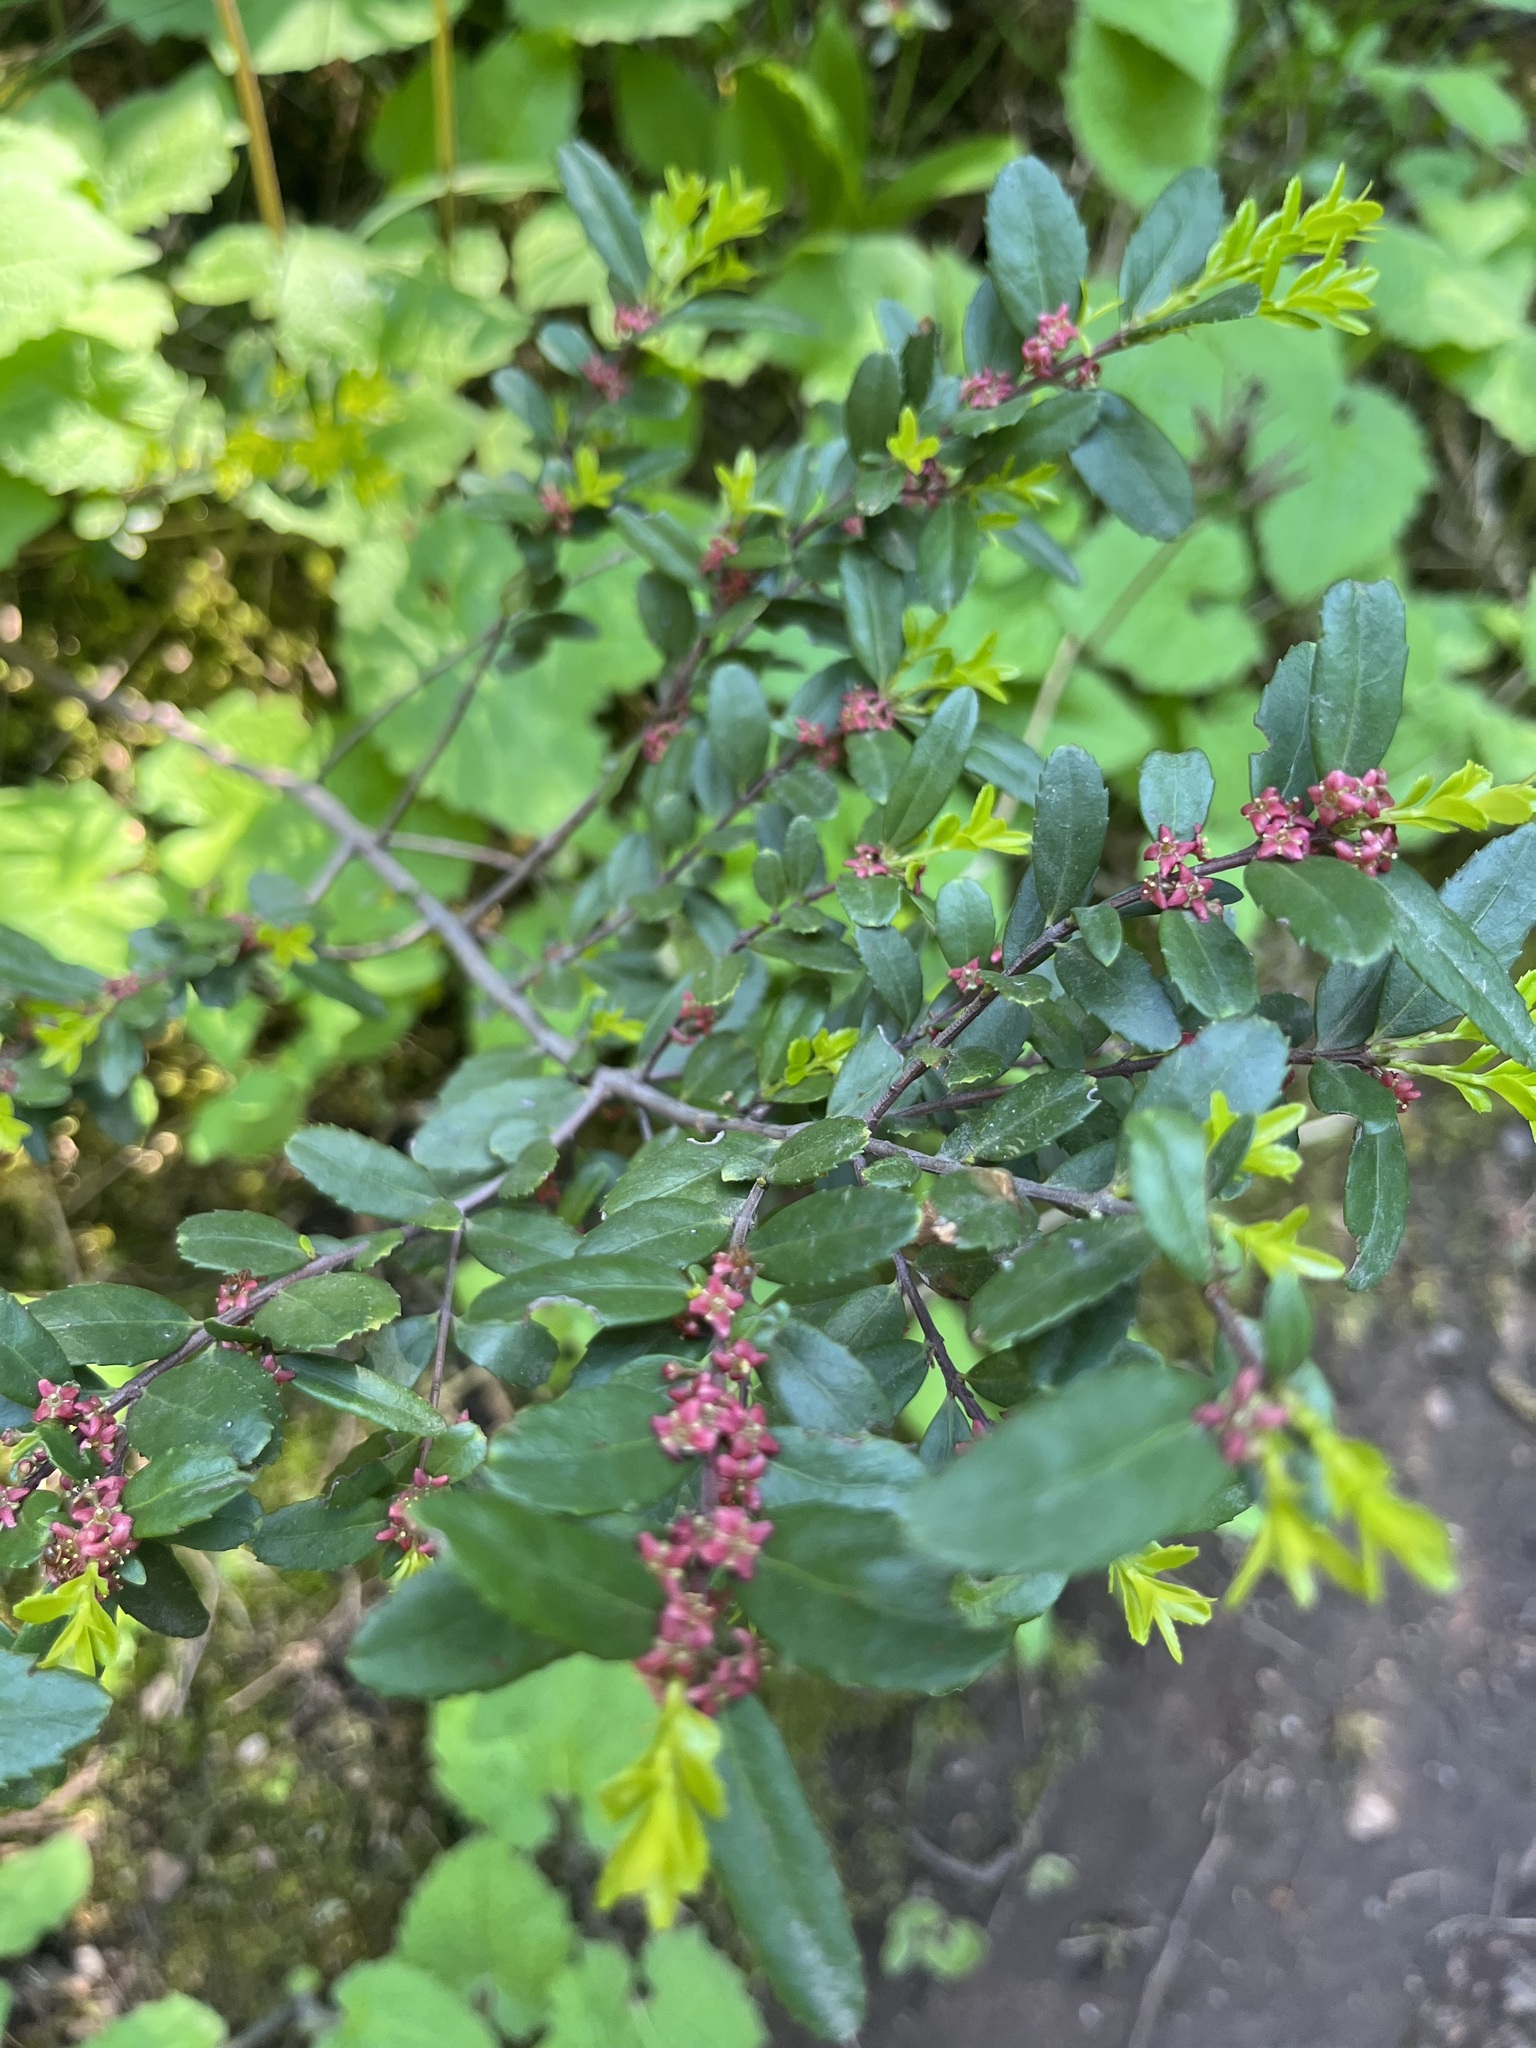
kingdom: Plantae
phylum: Tracheophyta
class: Magnoliopsida
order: Celastrales
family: Celastraceae
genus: Paxistima
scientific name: Paxistima myrsinites
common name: Mountain-lover
